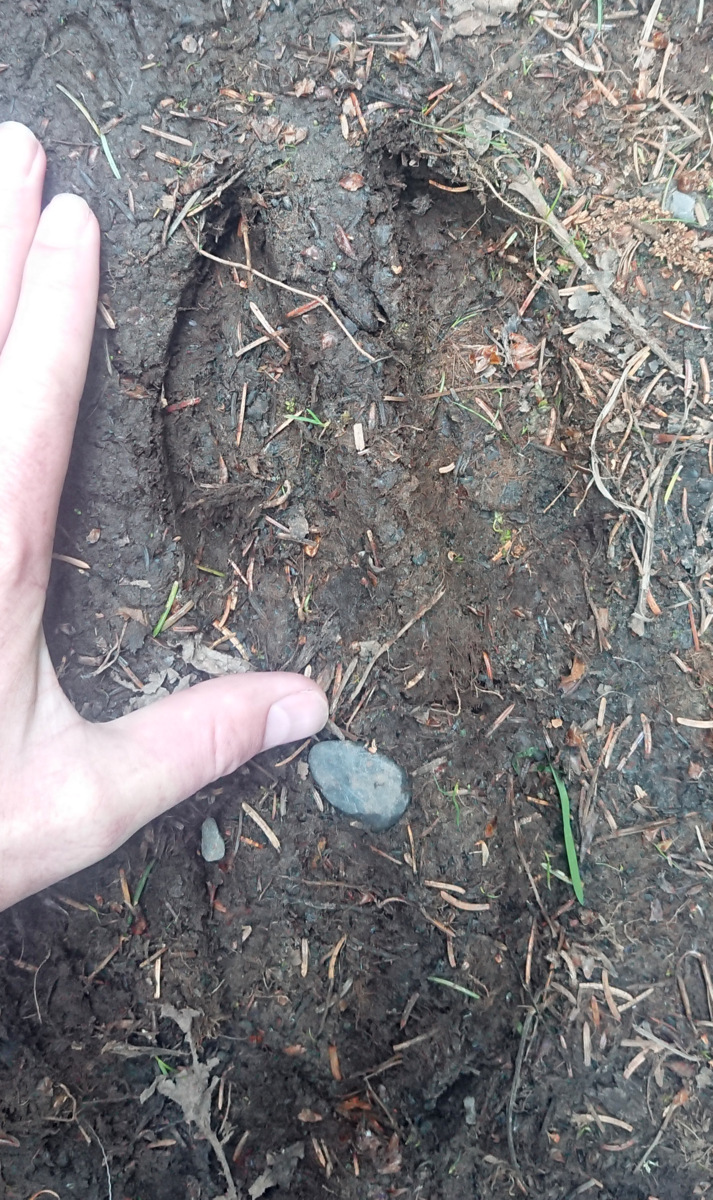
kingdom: Animalia
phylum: Chordata
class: Mammalia
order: Artiodactyla
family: Cervidae
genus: Alces
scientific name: Alces alces
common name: Moose
